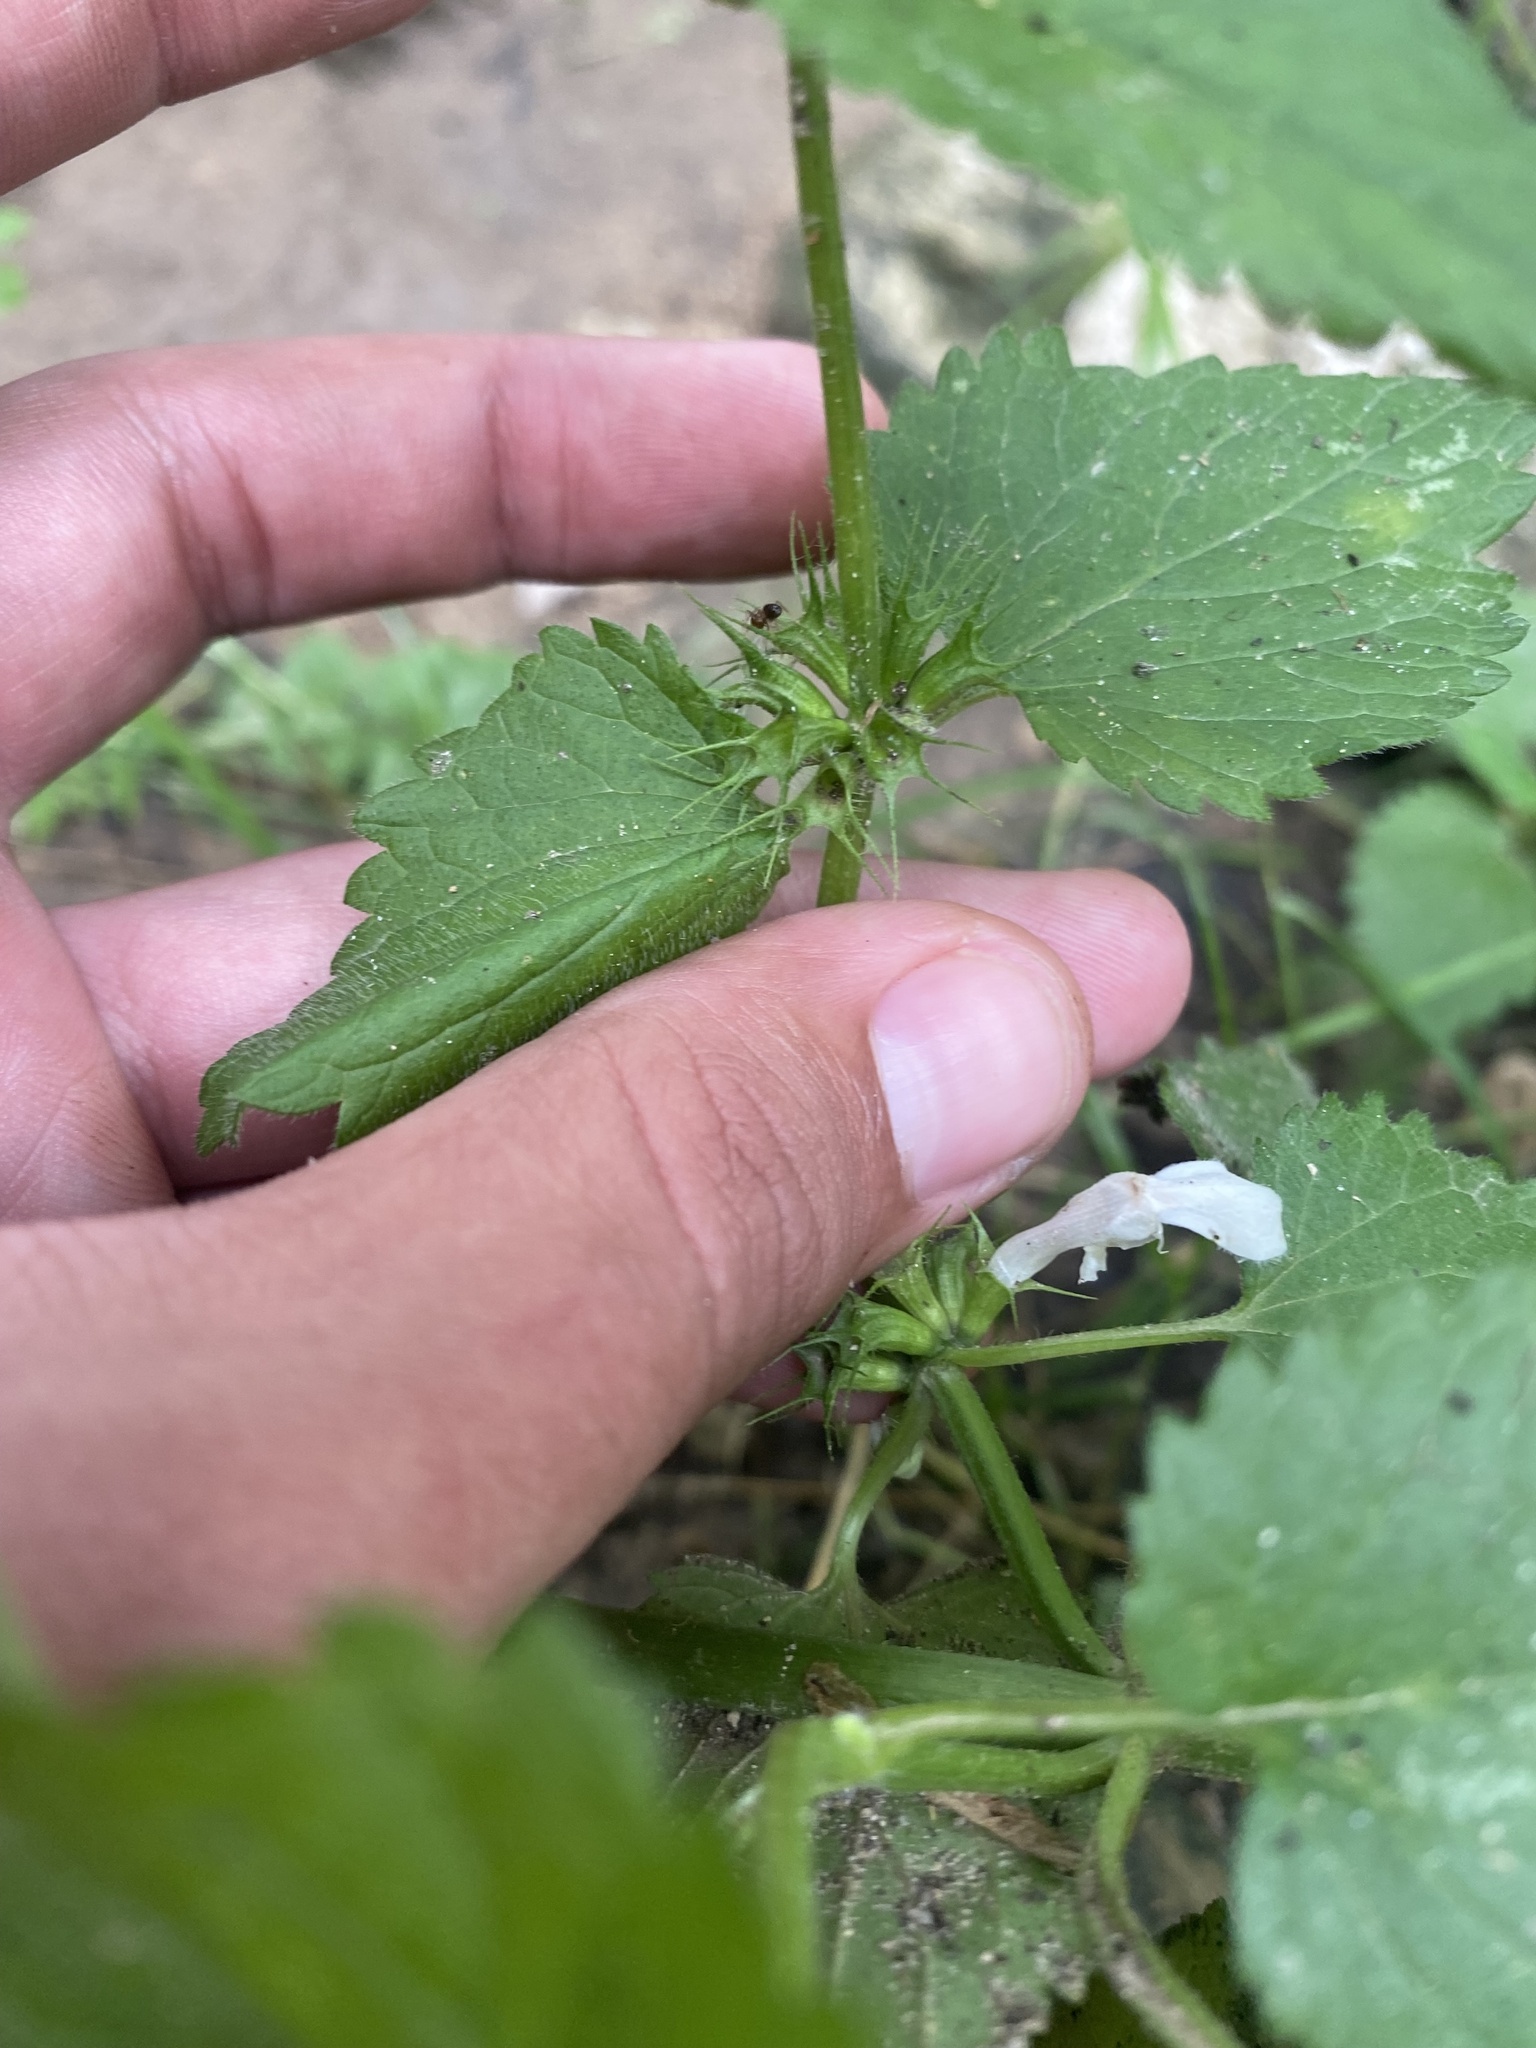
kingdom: Plantae
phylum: Tracheophyta
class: Magnoliopsida
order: Lamiales
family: Lamiaceae
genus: Lamium
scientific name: Lamium album
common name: White dead-nettle
